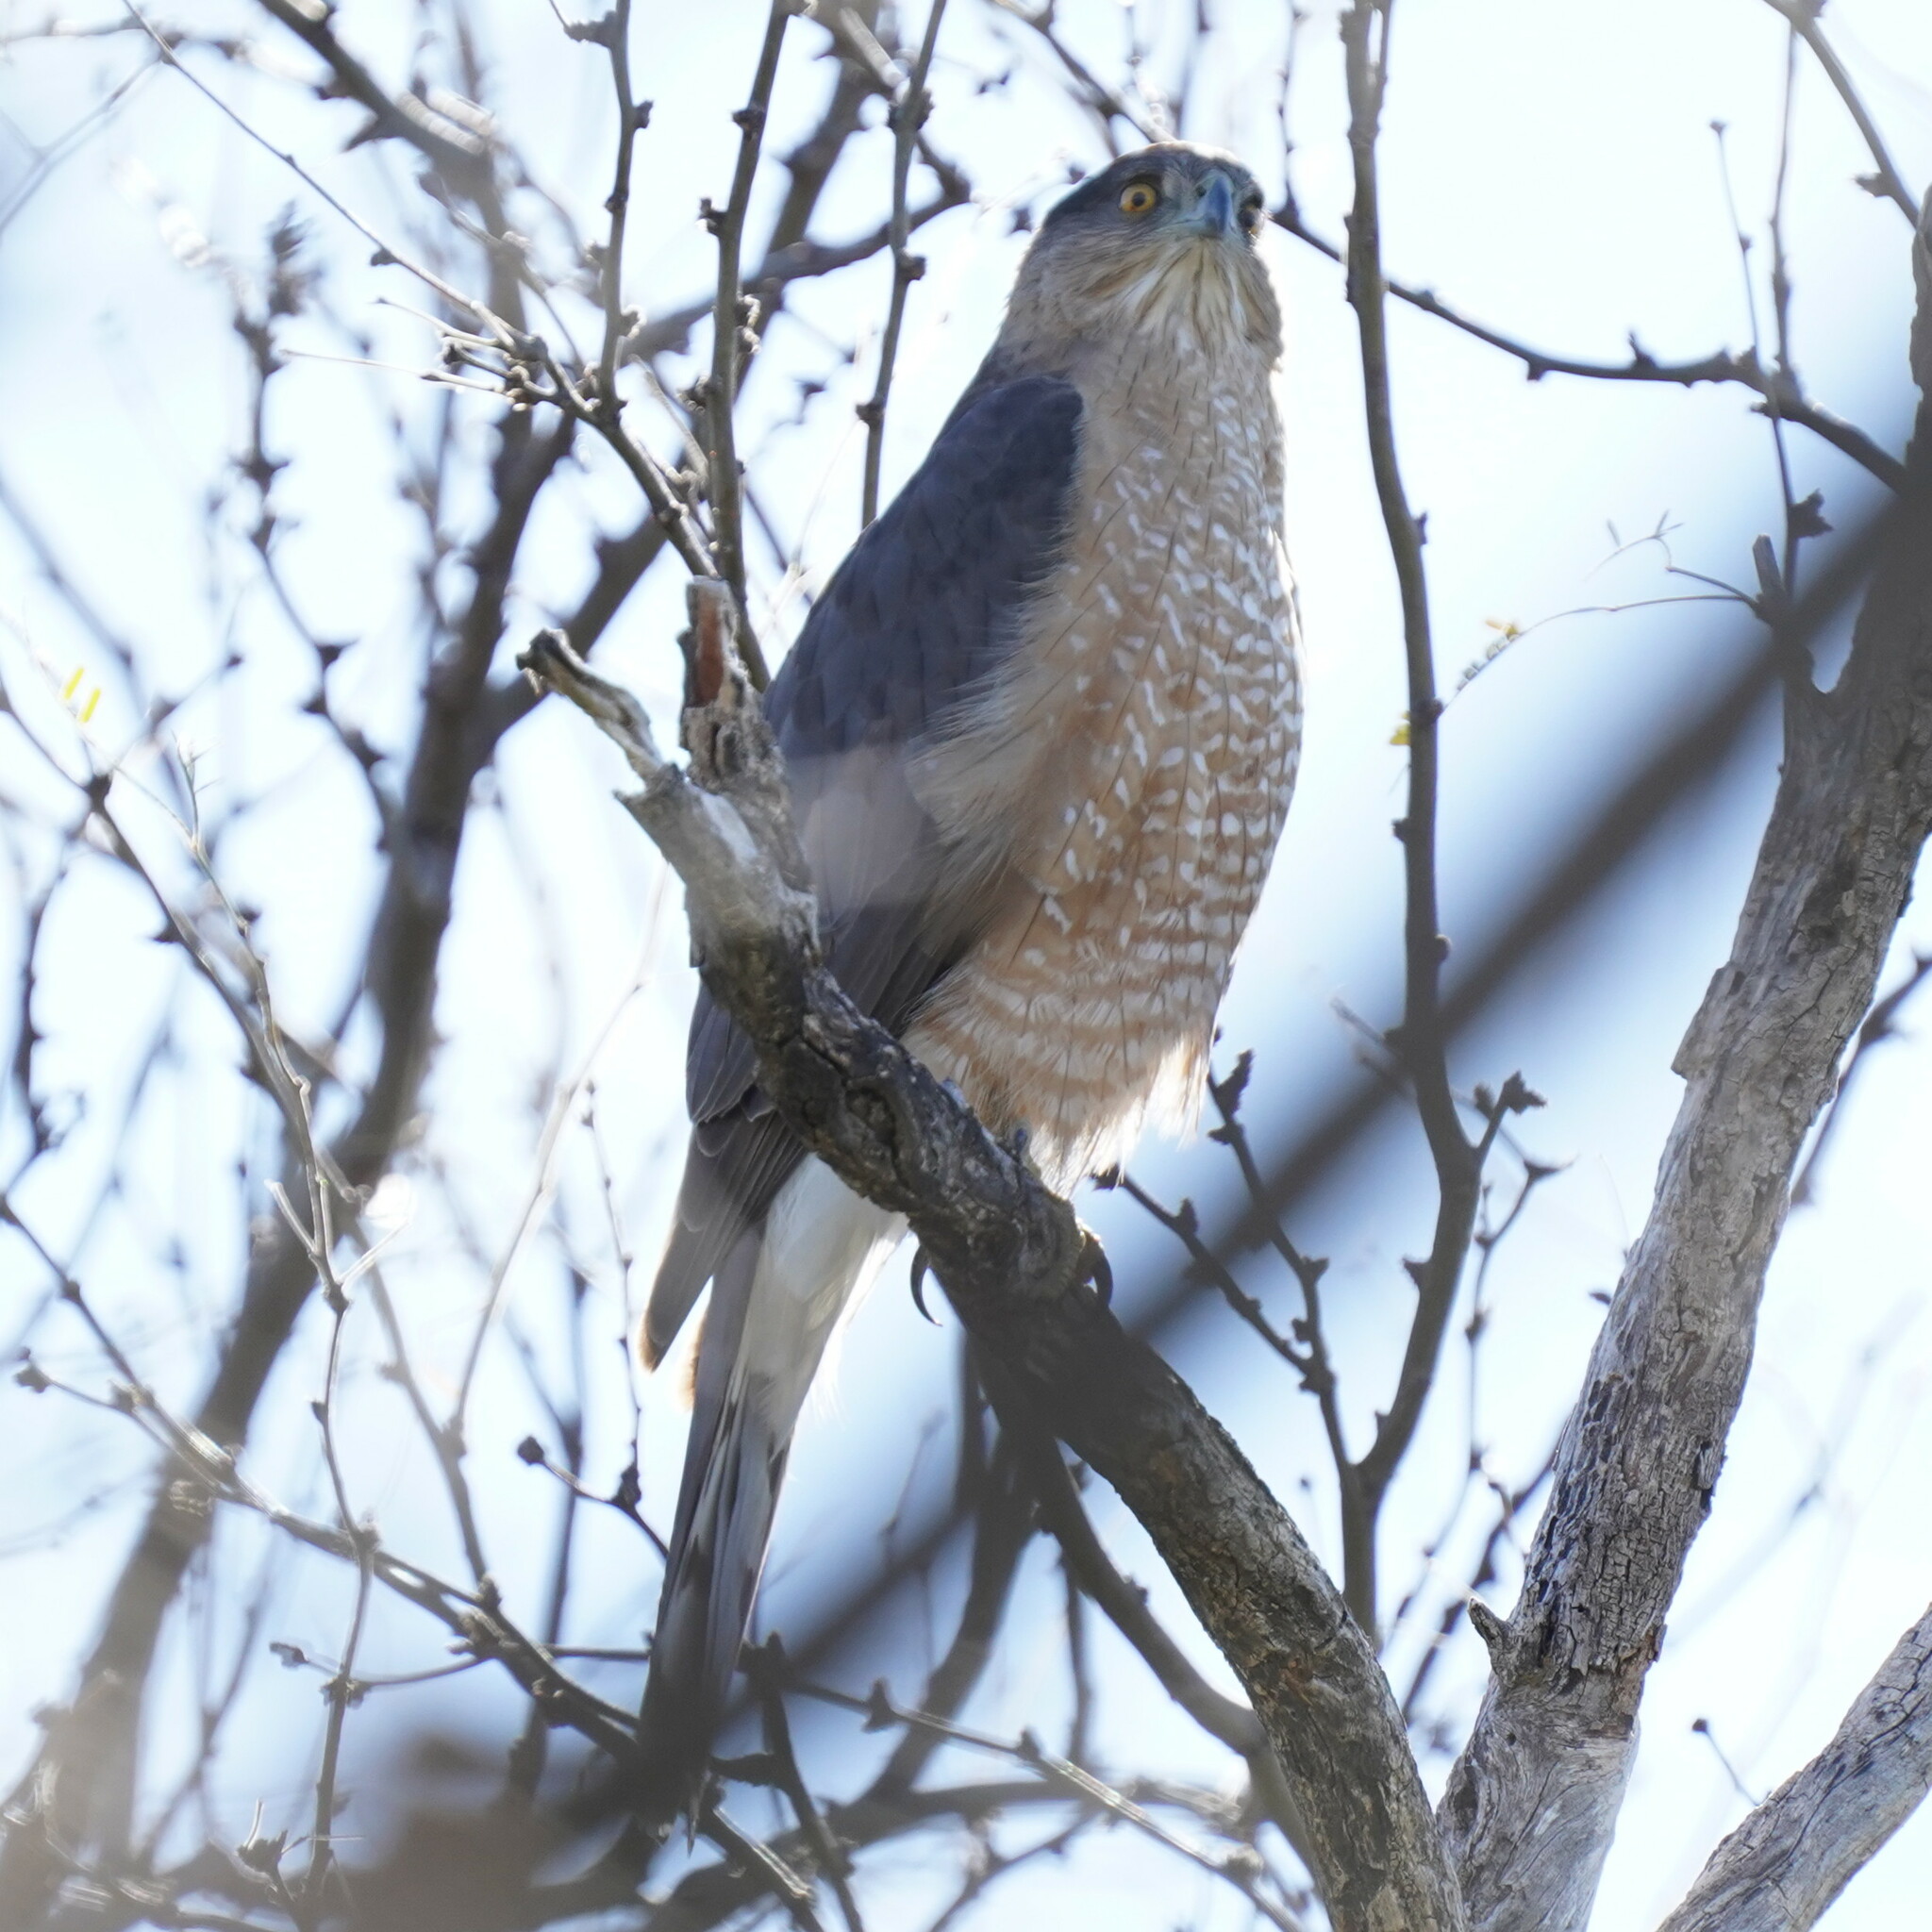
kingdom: Animalia
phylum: Chordata
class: Aves
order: Accipitriformes
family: Accipitridae
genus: Accipiter
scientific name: Accipiter cooperii
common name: Cooper's hawk
